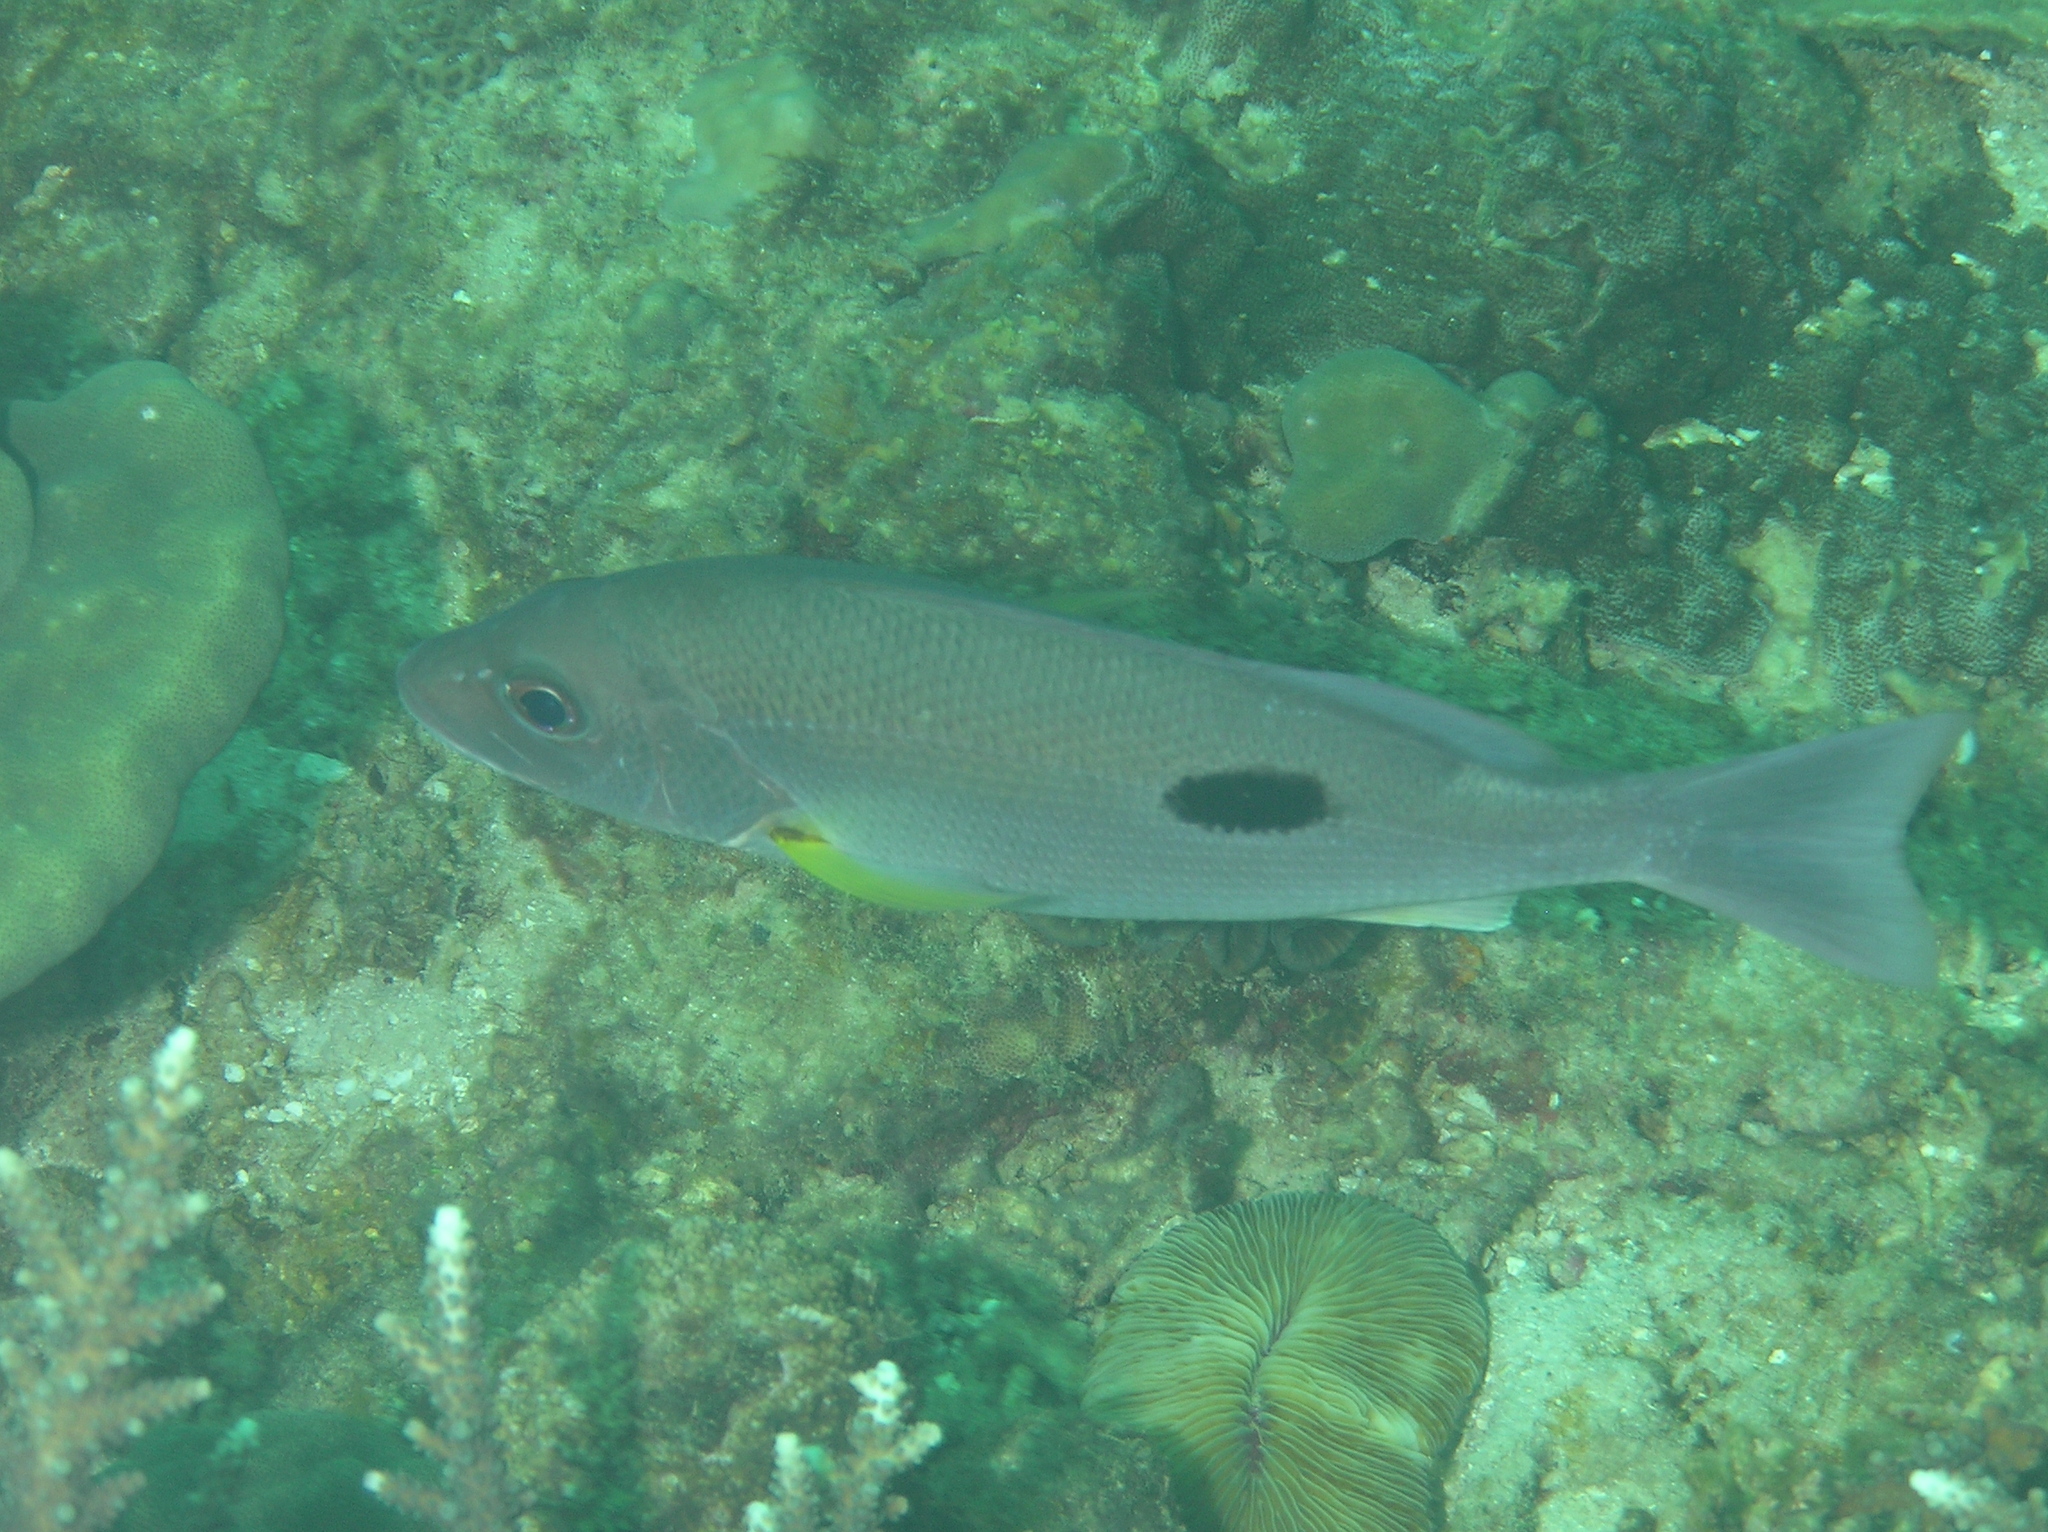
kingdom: Animalia
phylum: Chordata
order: Perciformes
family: Lutjanidae
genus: Lutjanus
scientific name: Lutjanus russellii
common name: Russell's snapper
